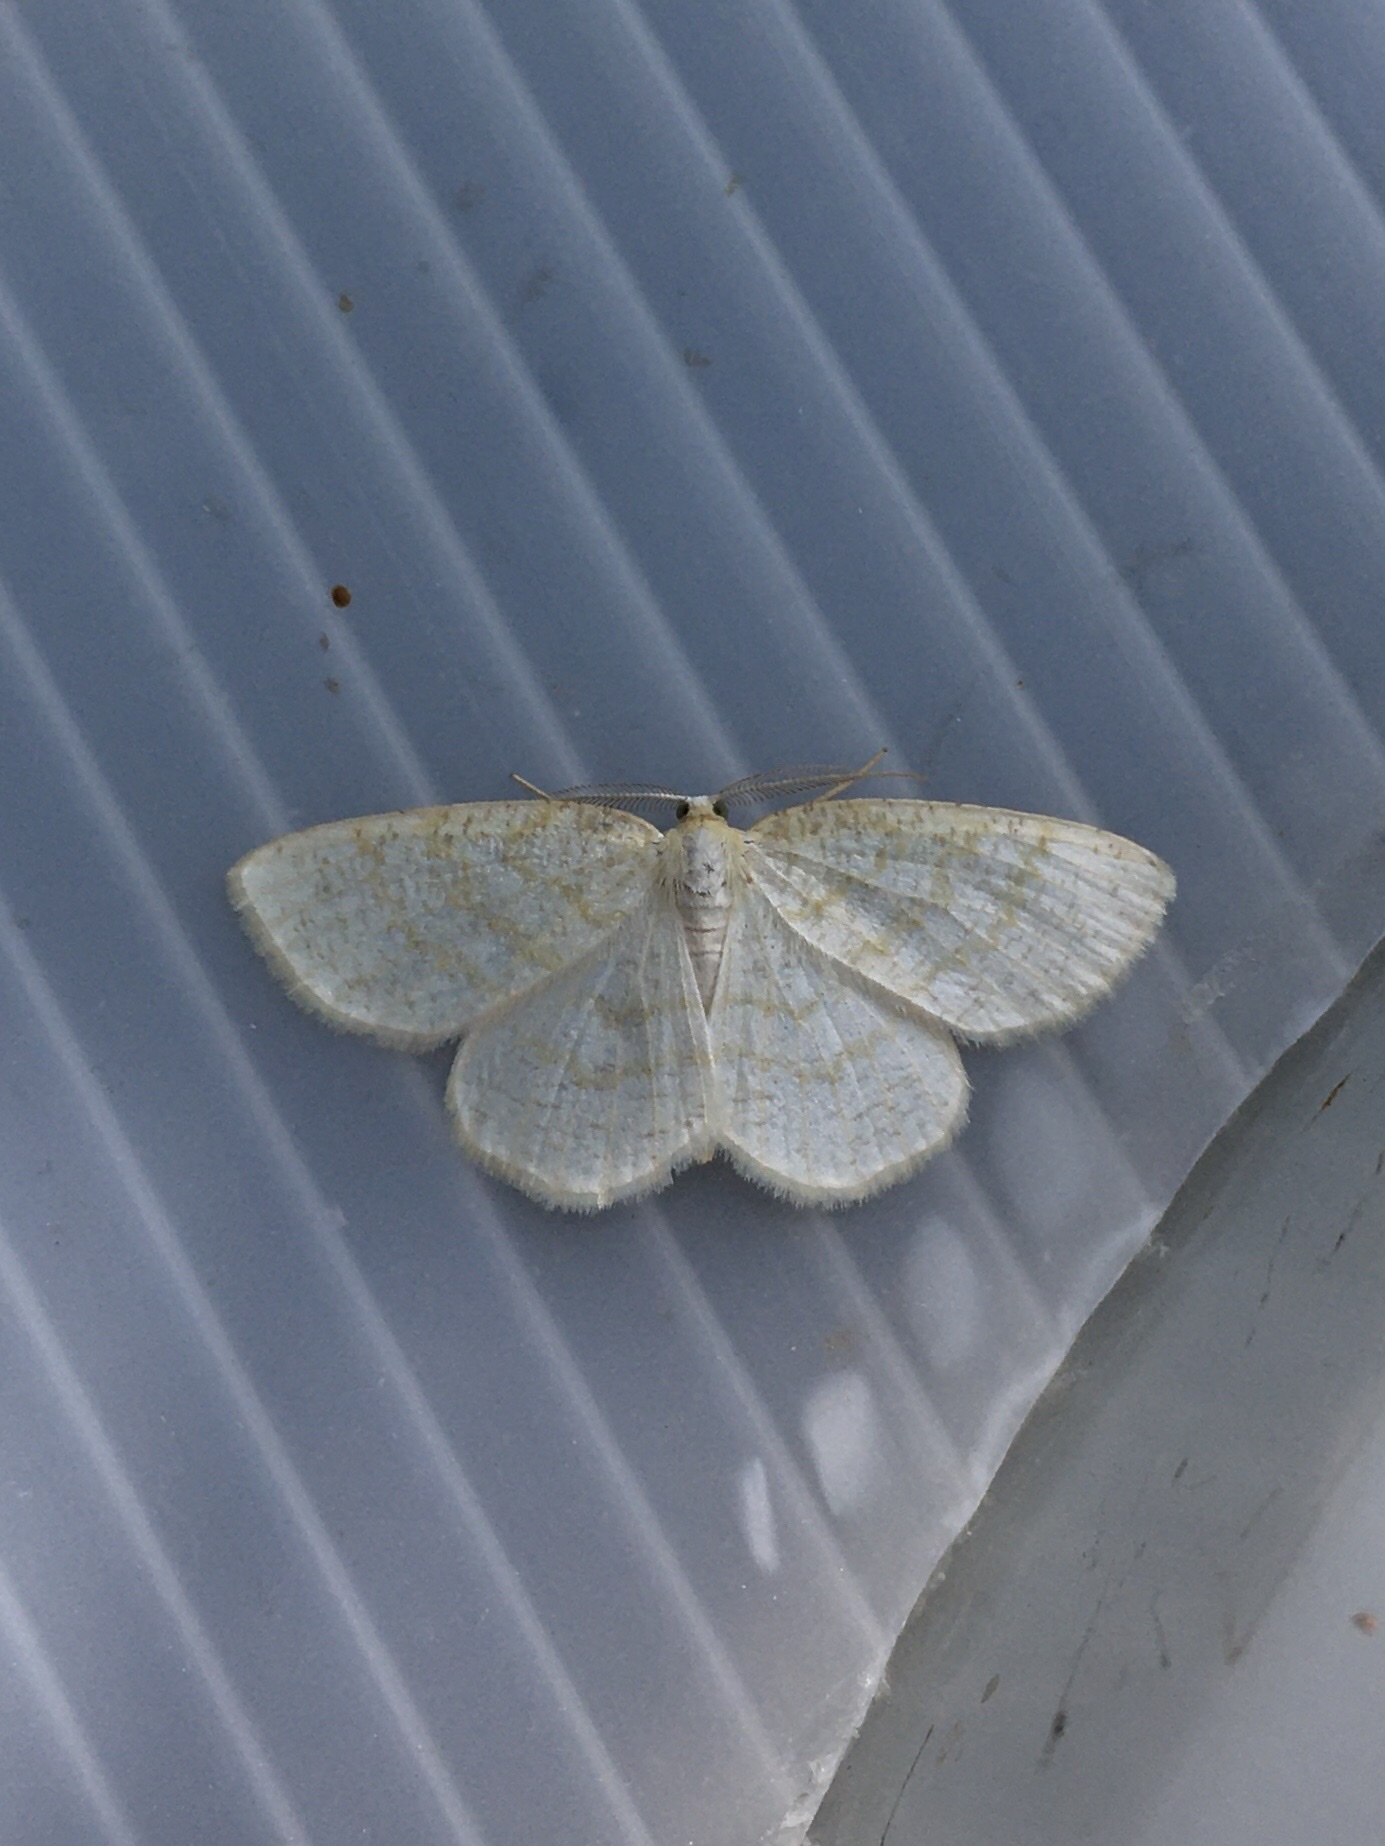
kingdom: Animalia
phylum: Arthropoda
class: Insecta
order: Lepidoptera
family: Geometridae
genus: Cabera
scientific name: Cabera erythemaria
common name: Yellow-dusted cream moth
